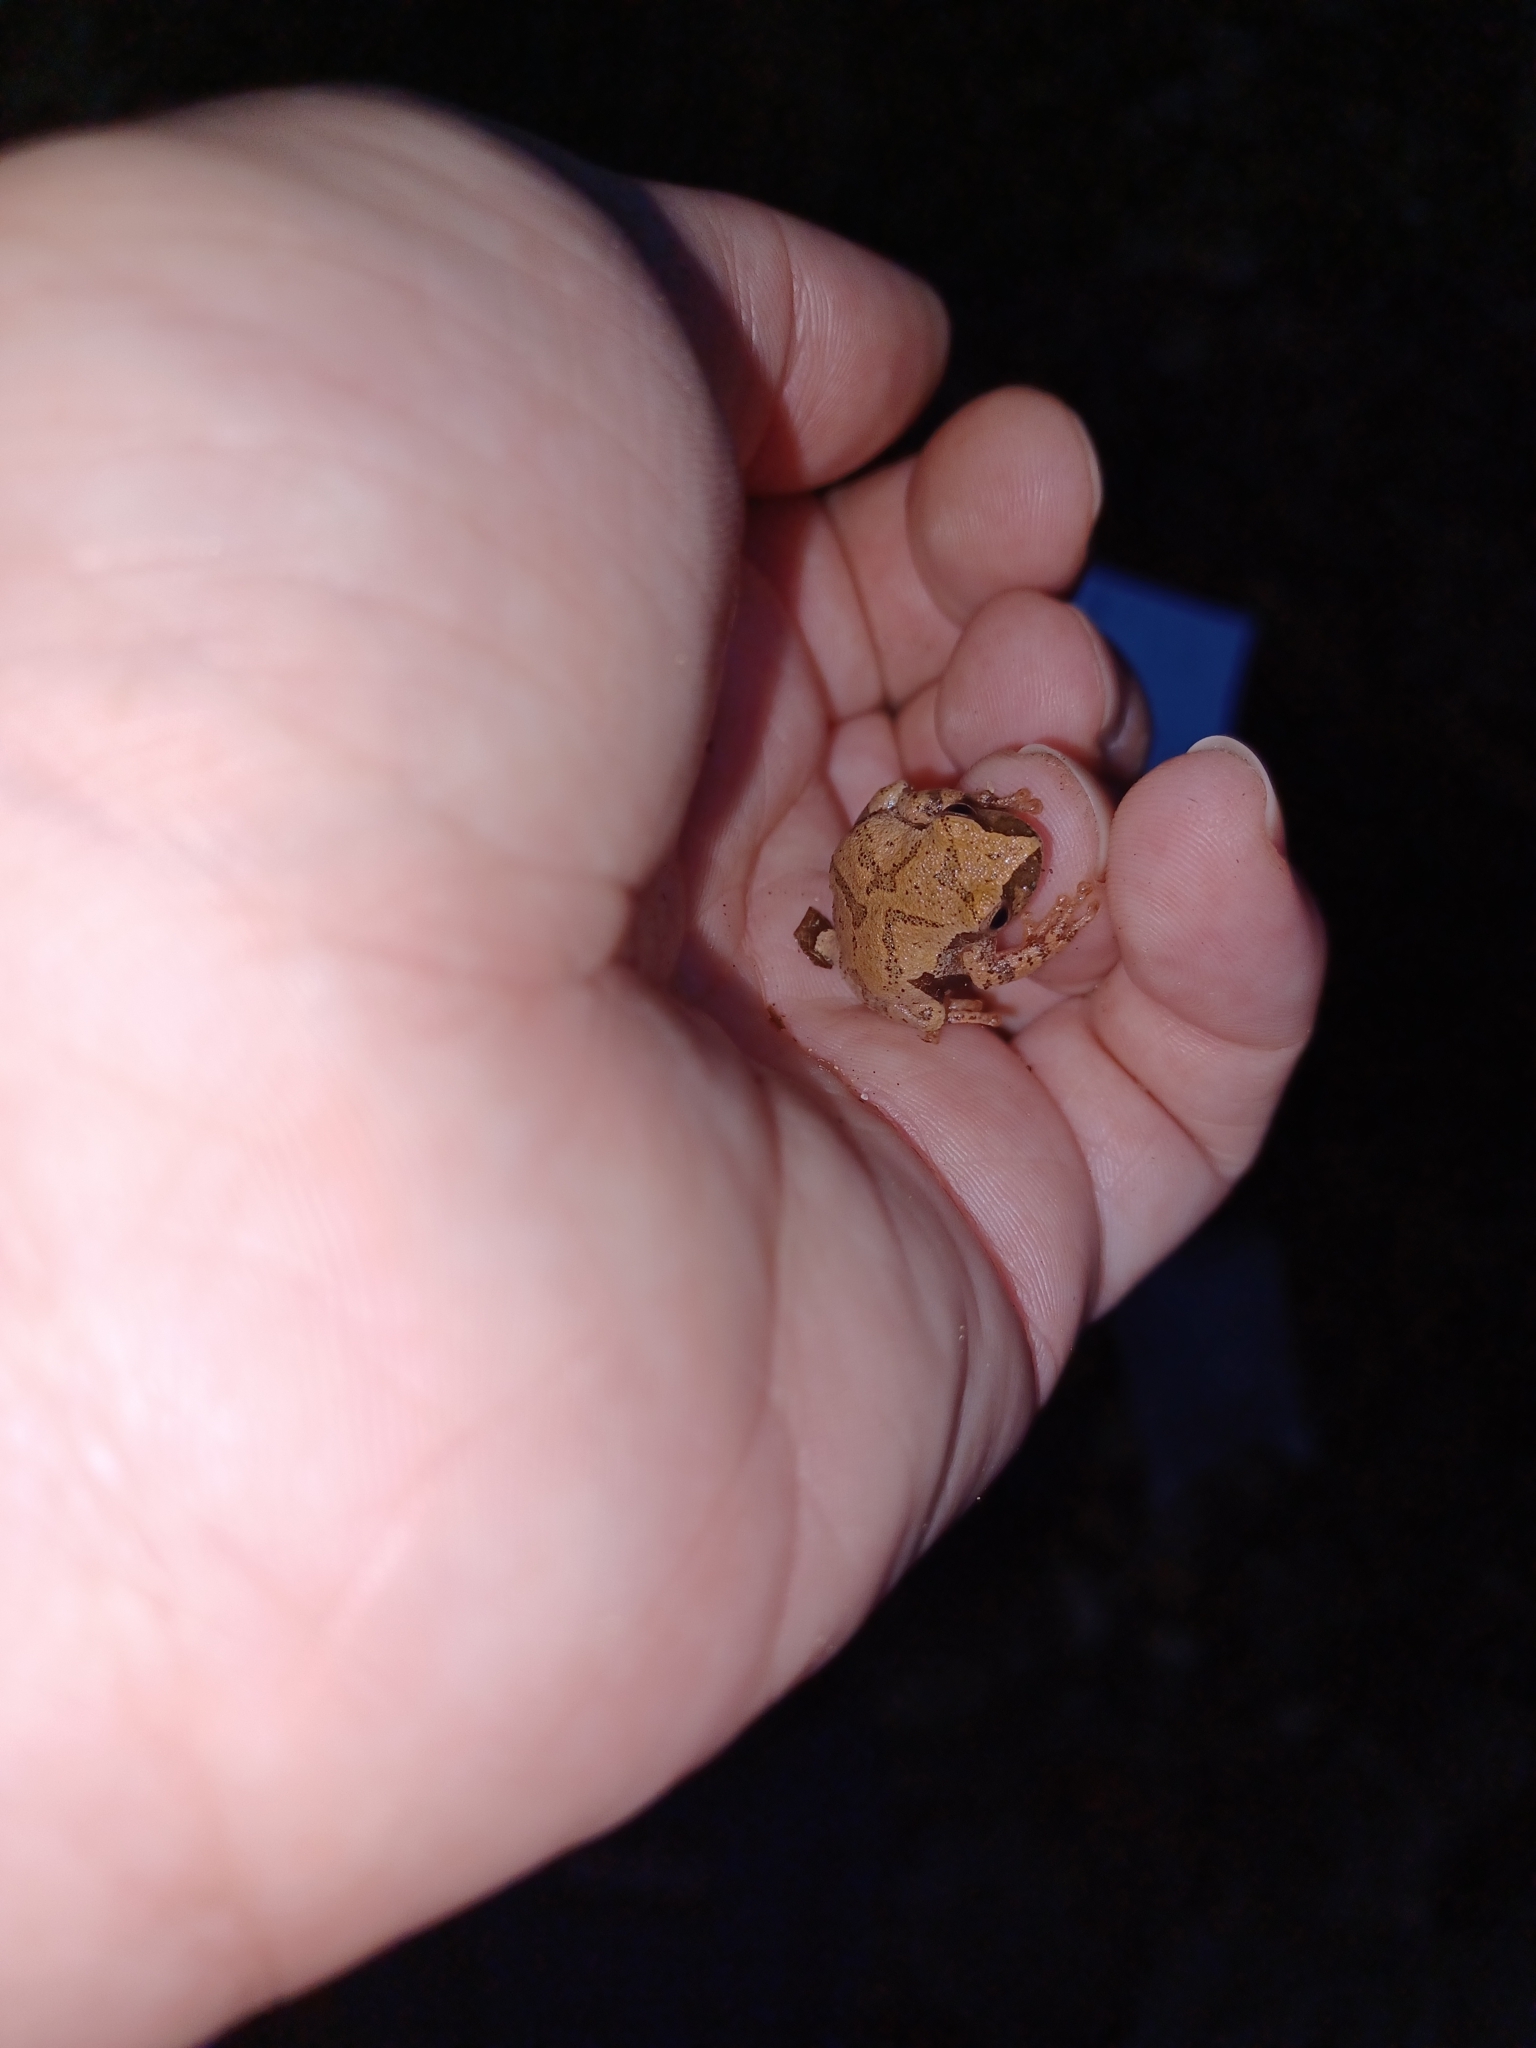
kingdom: Animalia
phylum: Chordata
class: Amphibia
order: Anura
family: Hylidae
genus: Pseudacris
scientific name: Pseudacris crucifer
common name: Spring peeper
